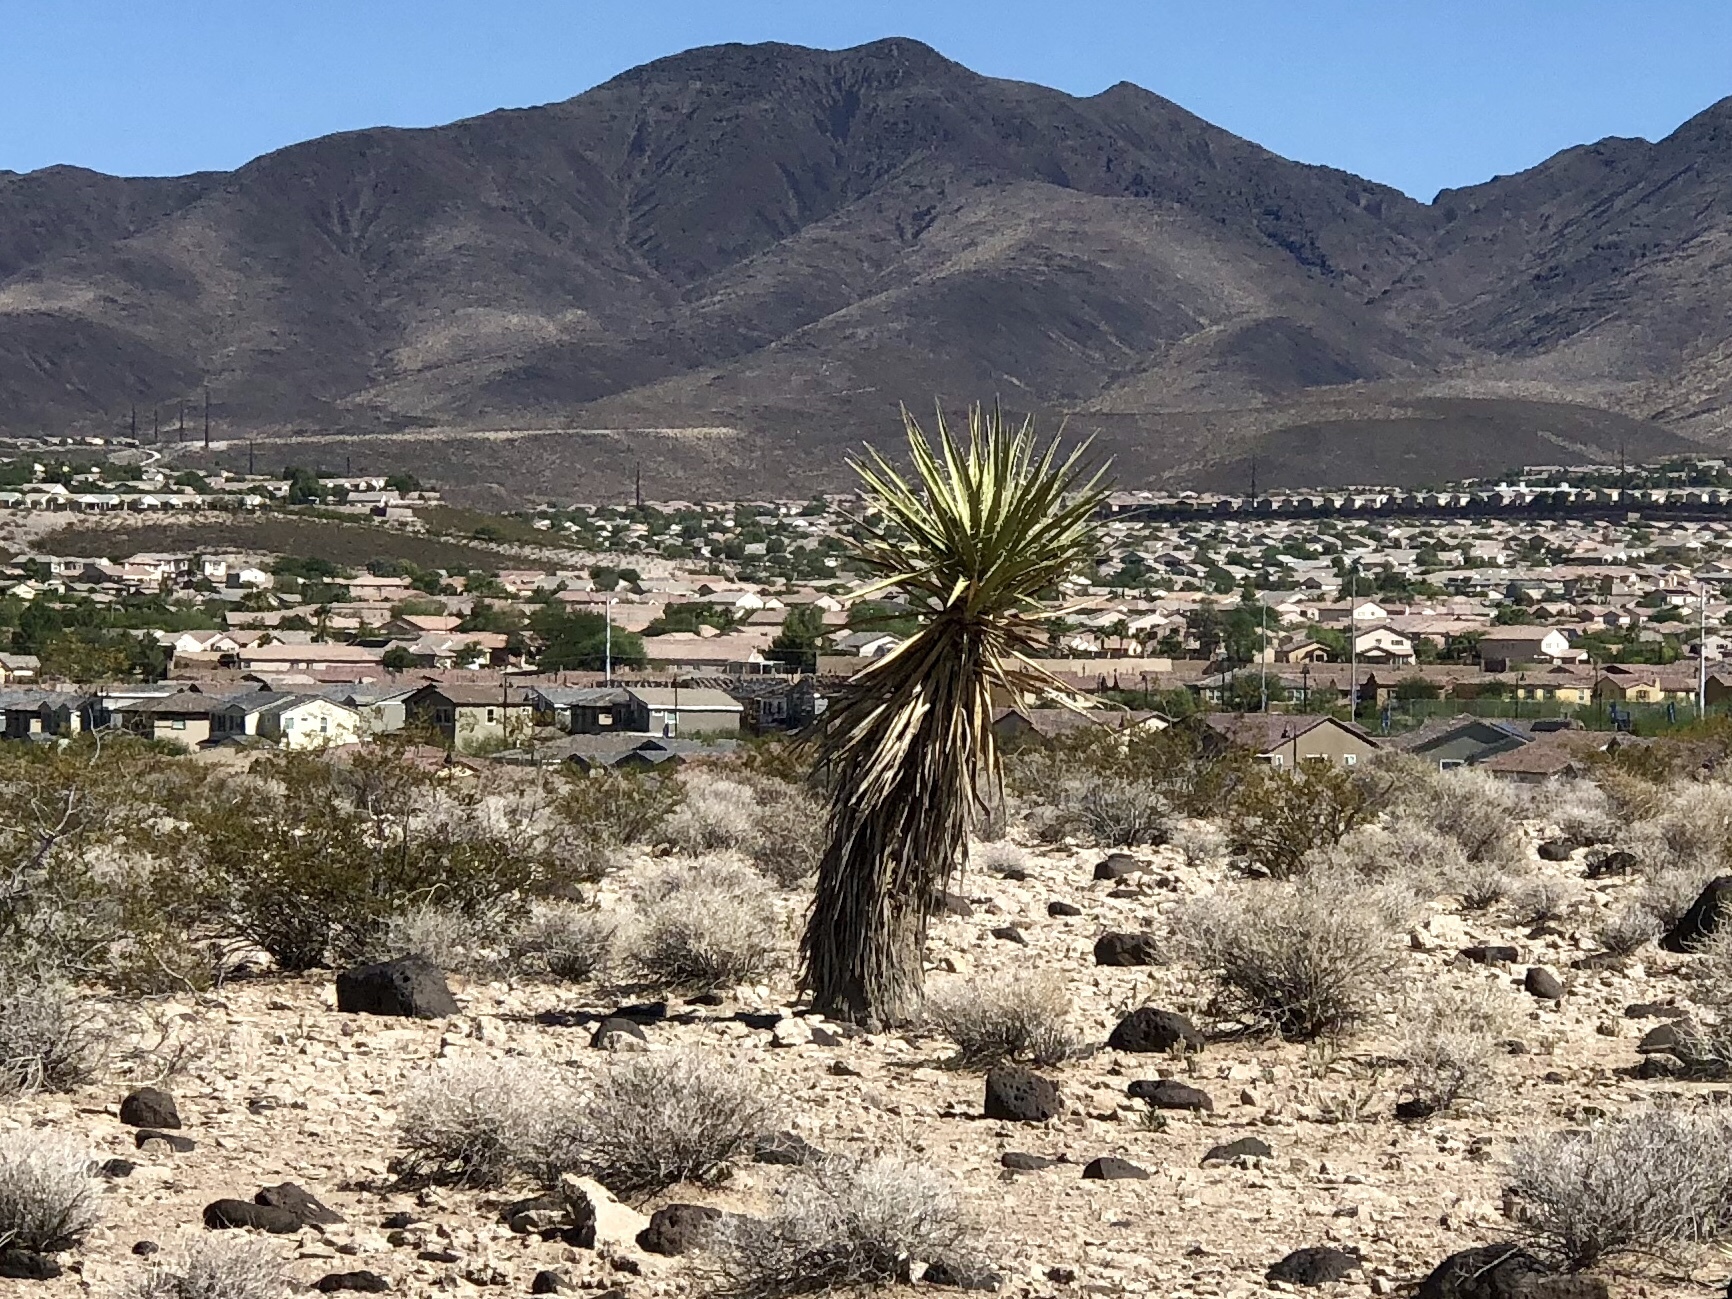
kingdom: Plantae
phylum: Tracheophyta
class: Liliopsida
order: Asparagales
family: Asparagaceae
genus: Yucca
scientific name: Yucca schidigera
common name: Mojave yucca
